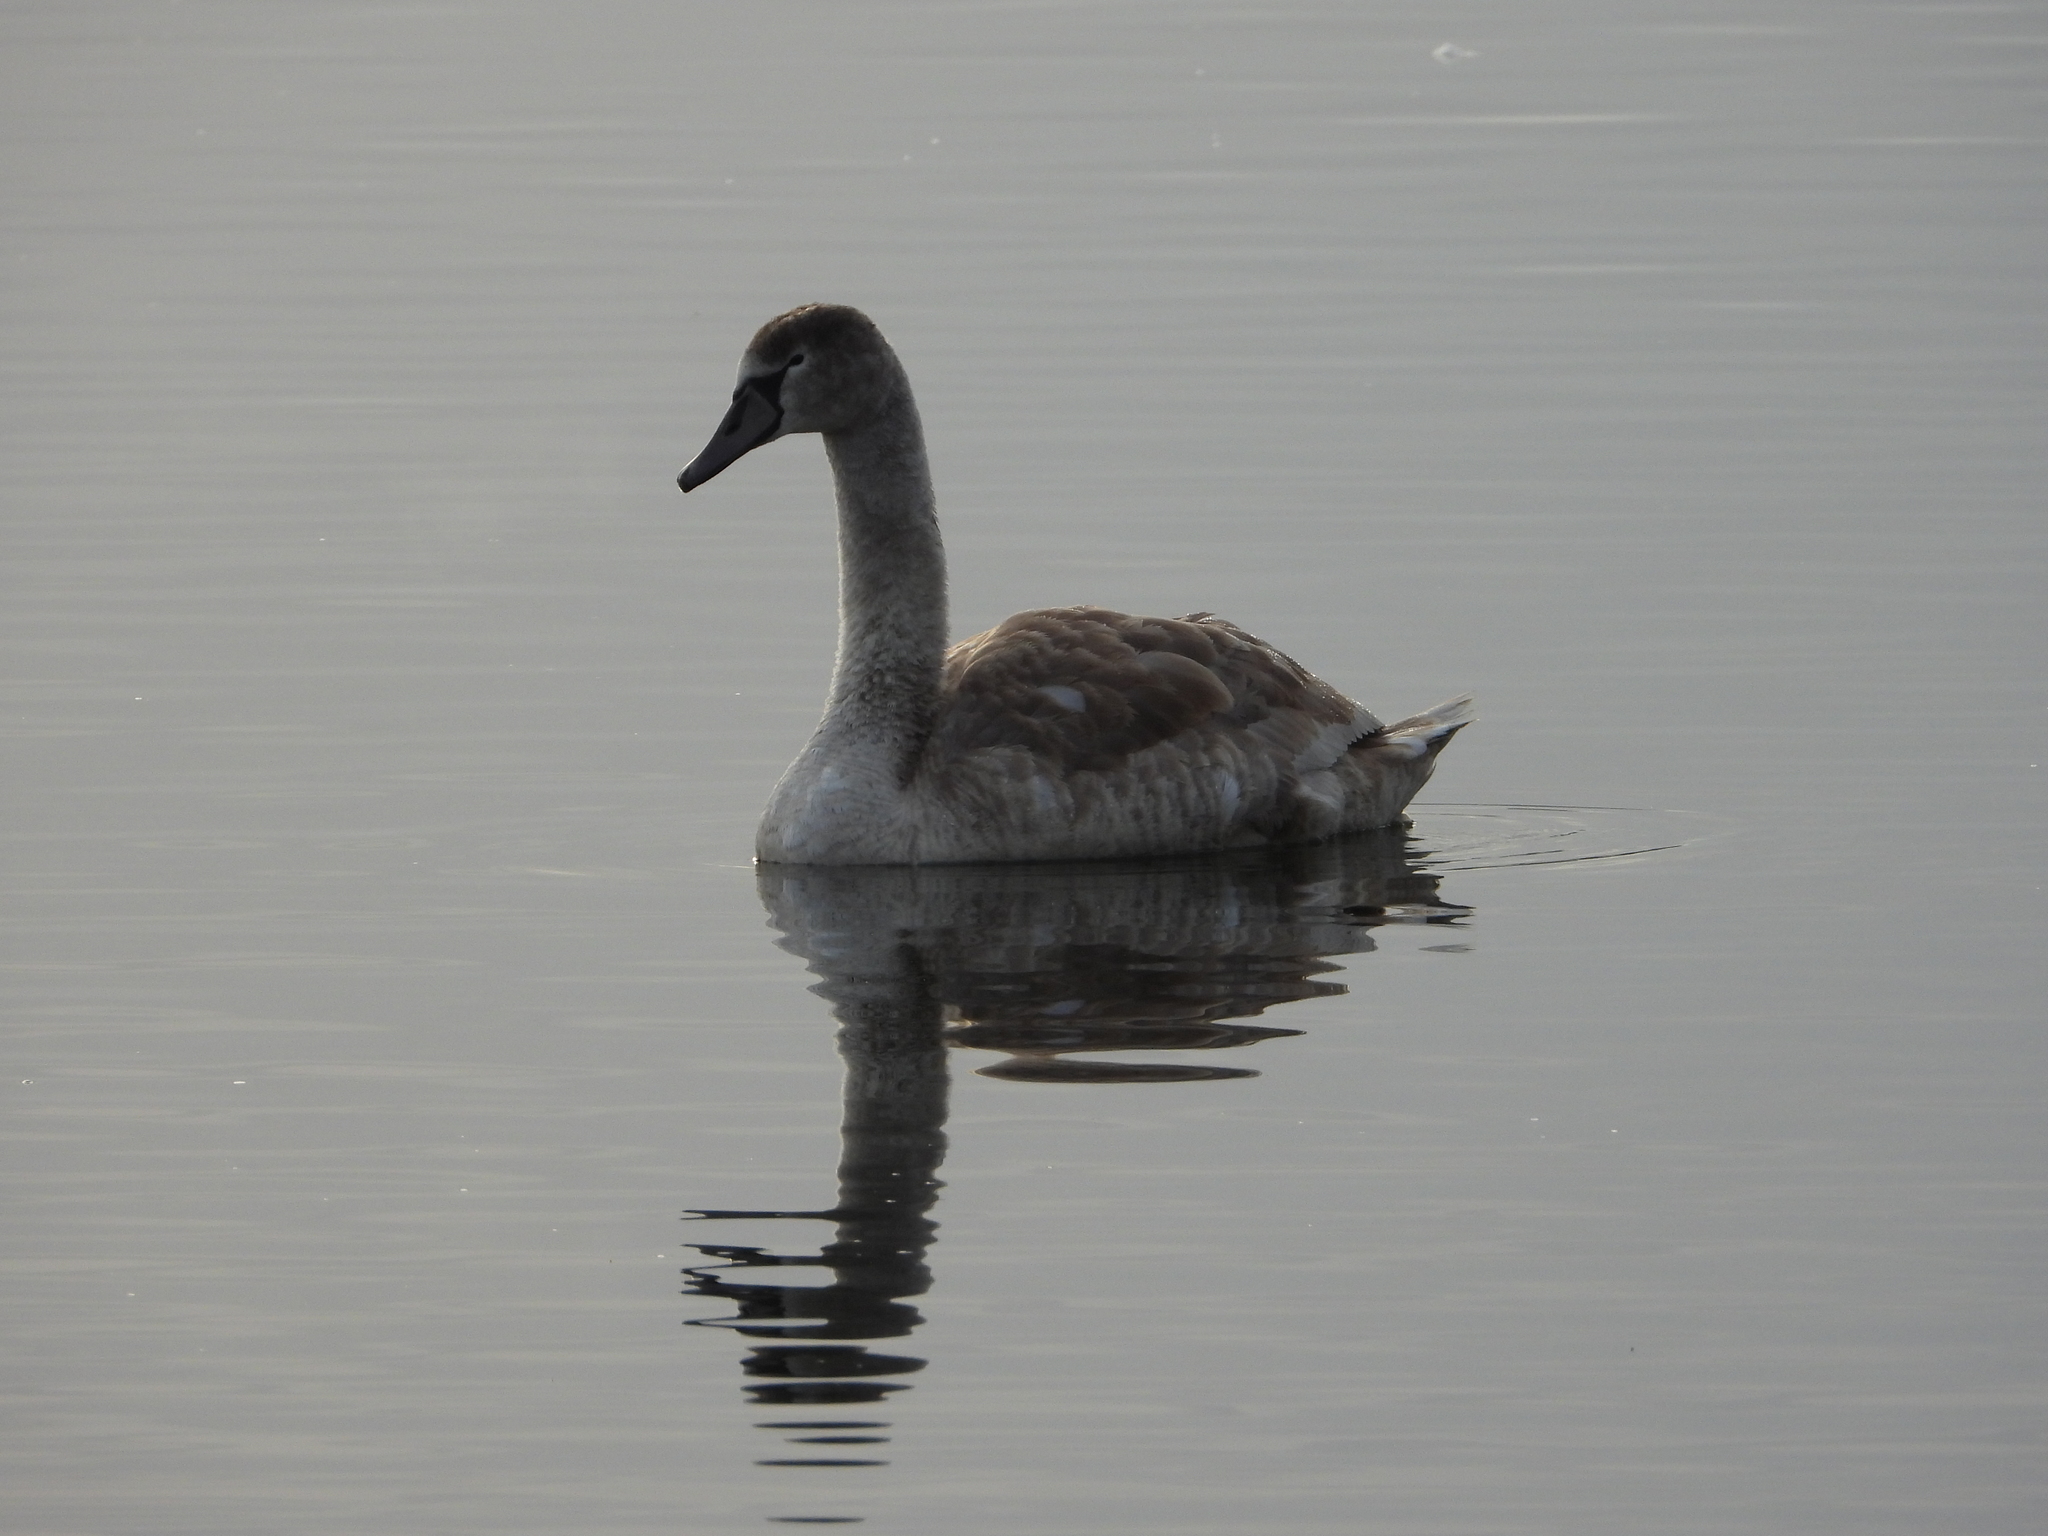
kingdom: Animalia
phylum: Chordata
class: Aves
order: Anseriformes
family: Anatidae
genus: Cygnus
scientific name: Cygnus olor
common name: Mute swan
